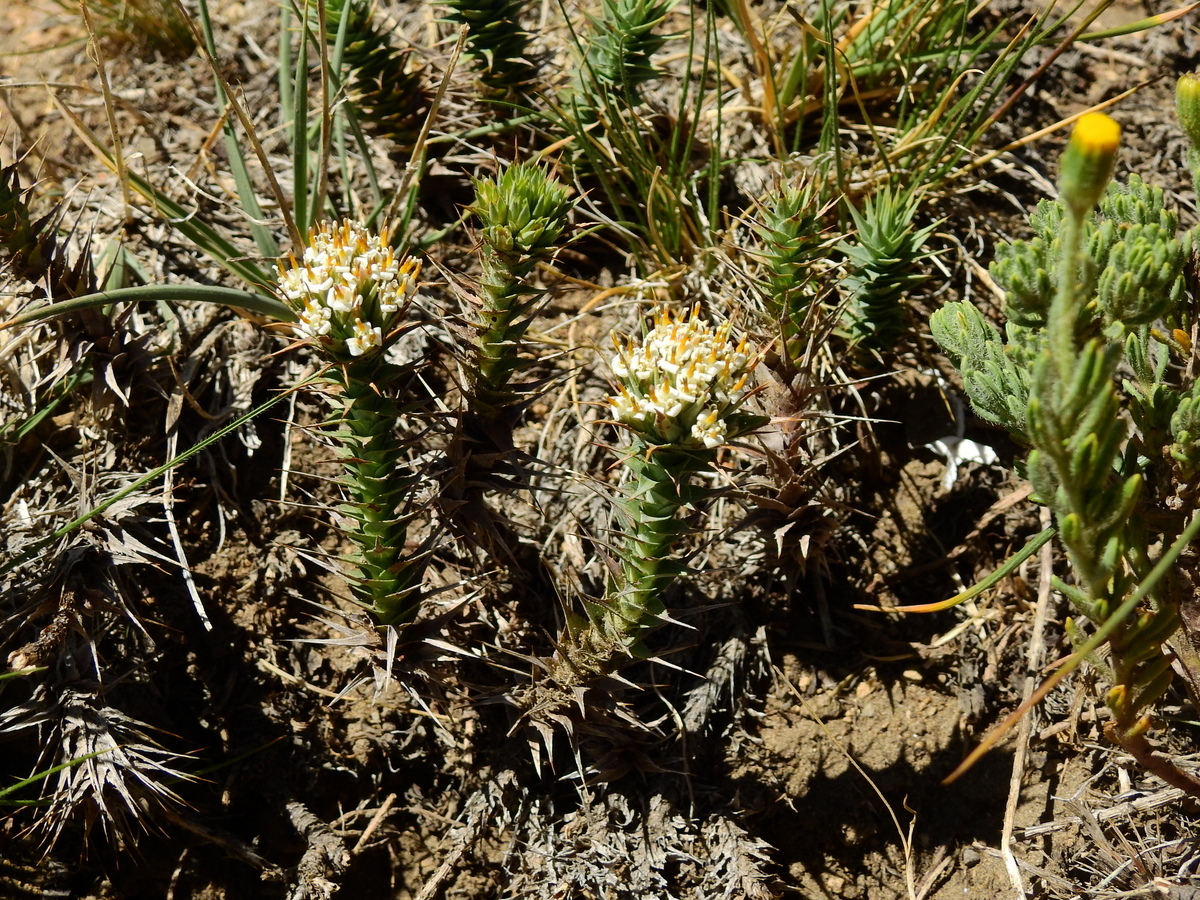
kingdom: Plantae
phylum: Tracheophyta
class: Magnoliopsida
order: Asterales
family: Asteraceae
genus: Nassauvia
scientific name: Nassauvia pyramidalis
